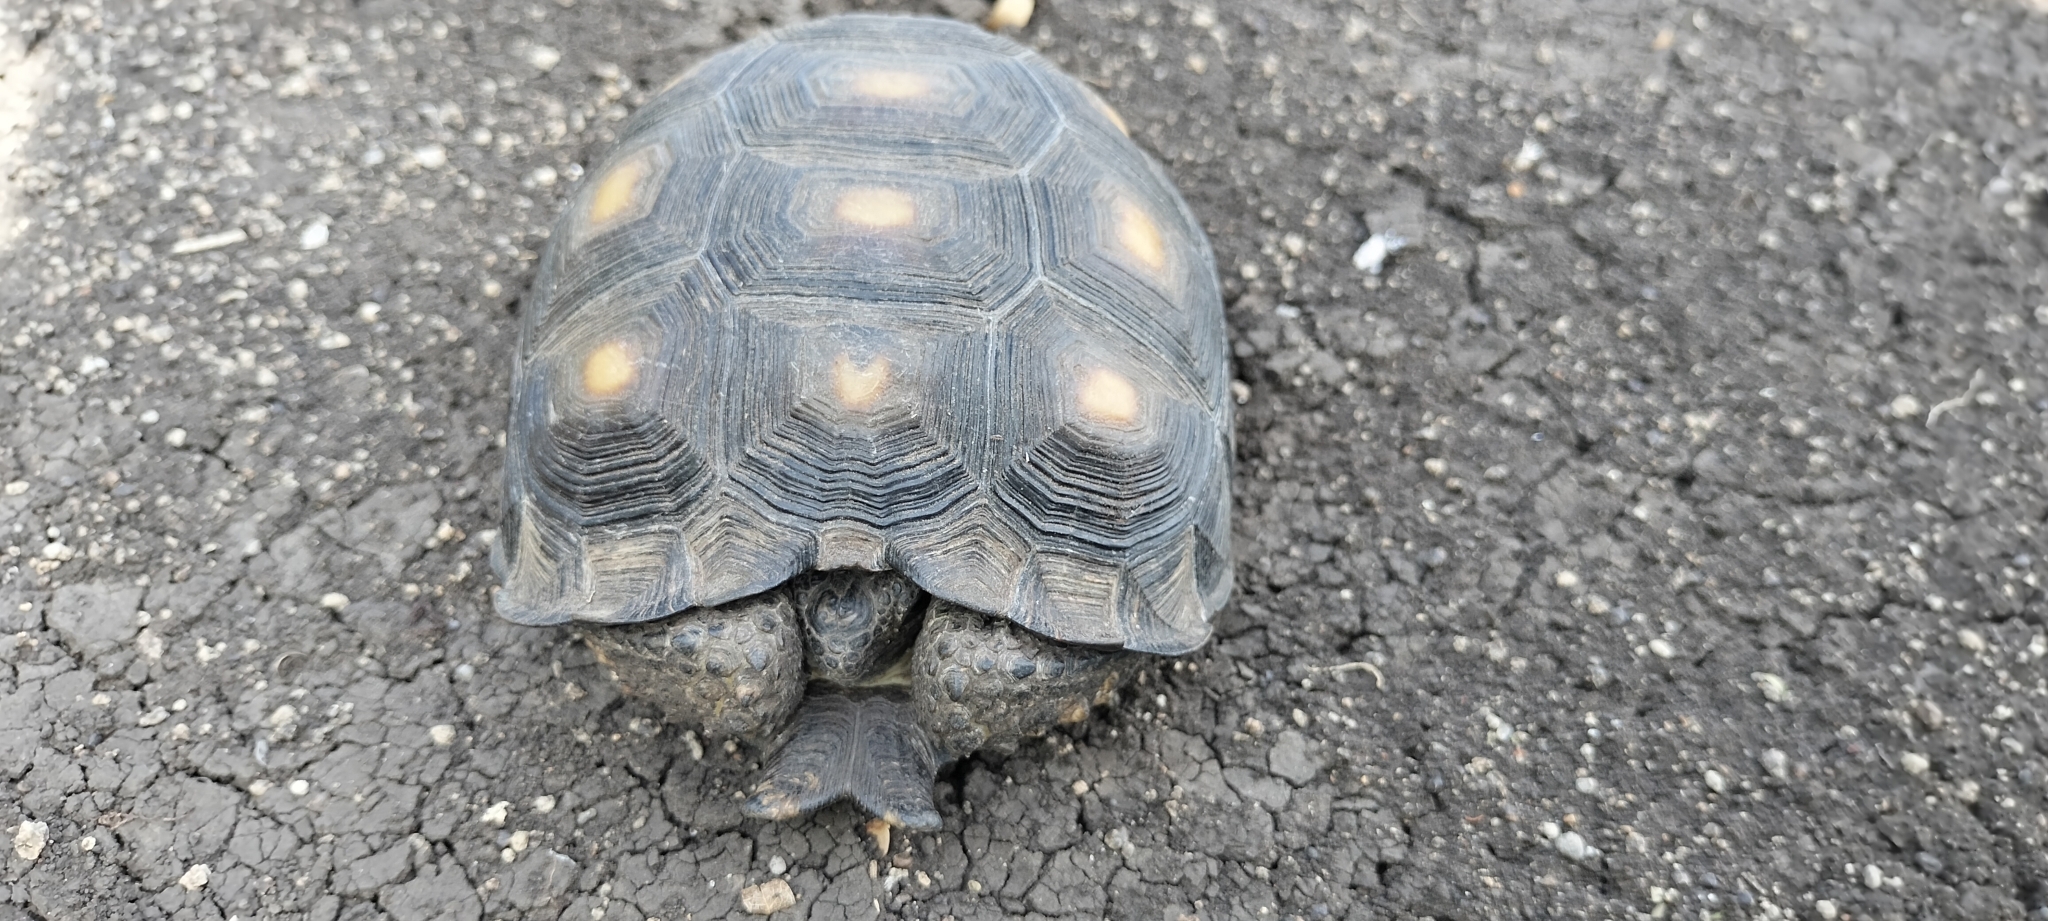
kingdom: Animalia
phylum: Chordata
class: Testudines
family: Testudinidae
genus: Gopherus
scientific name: Gopherus berlandieri
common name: Texas (gopher )tortoise
